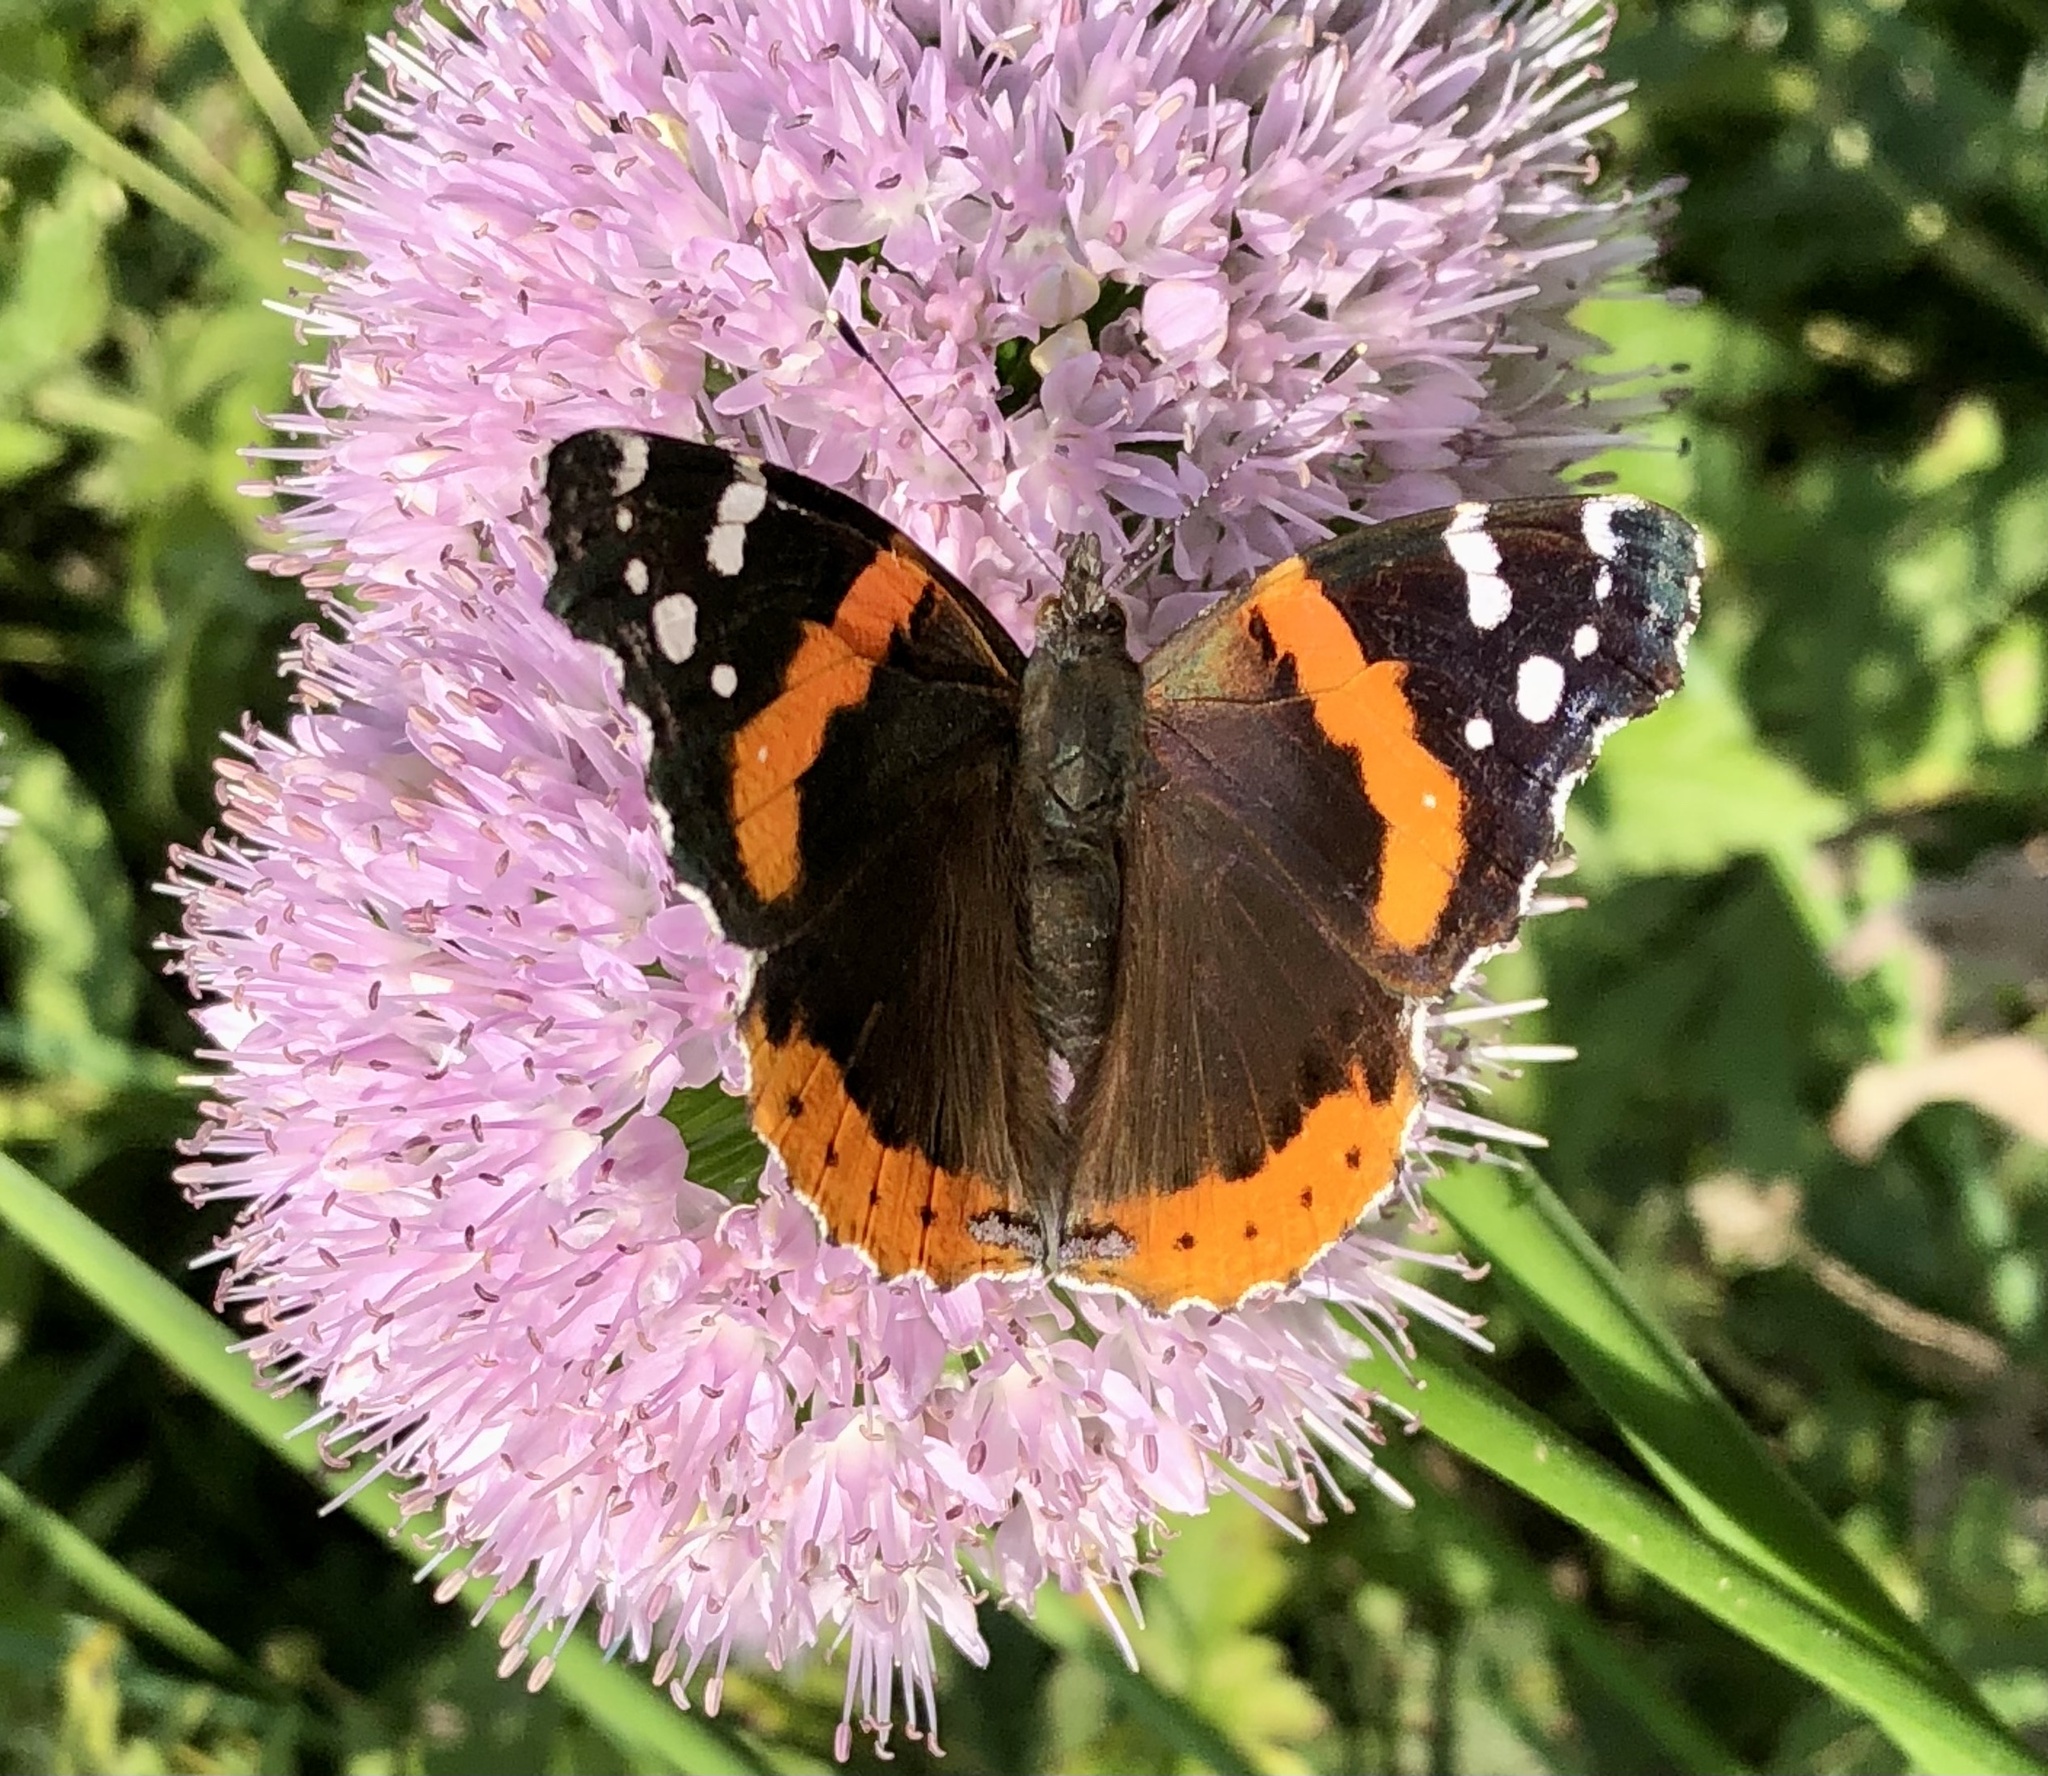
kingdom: Animalia
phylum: Arthropoda
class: Insecta
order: Lepidoptera
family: Nymphalidae
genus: Vanessa
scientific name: Vanessa atalanta
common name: Red admiral
